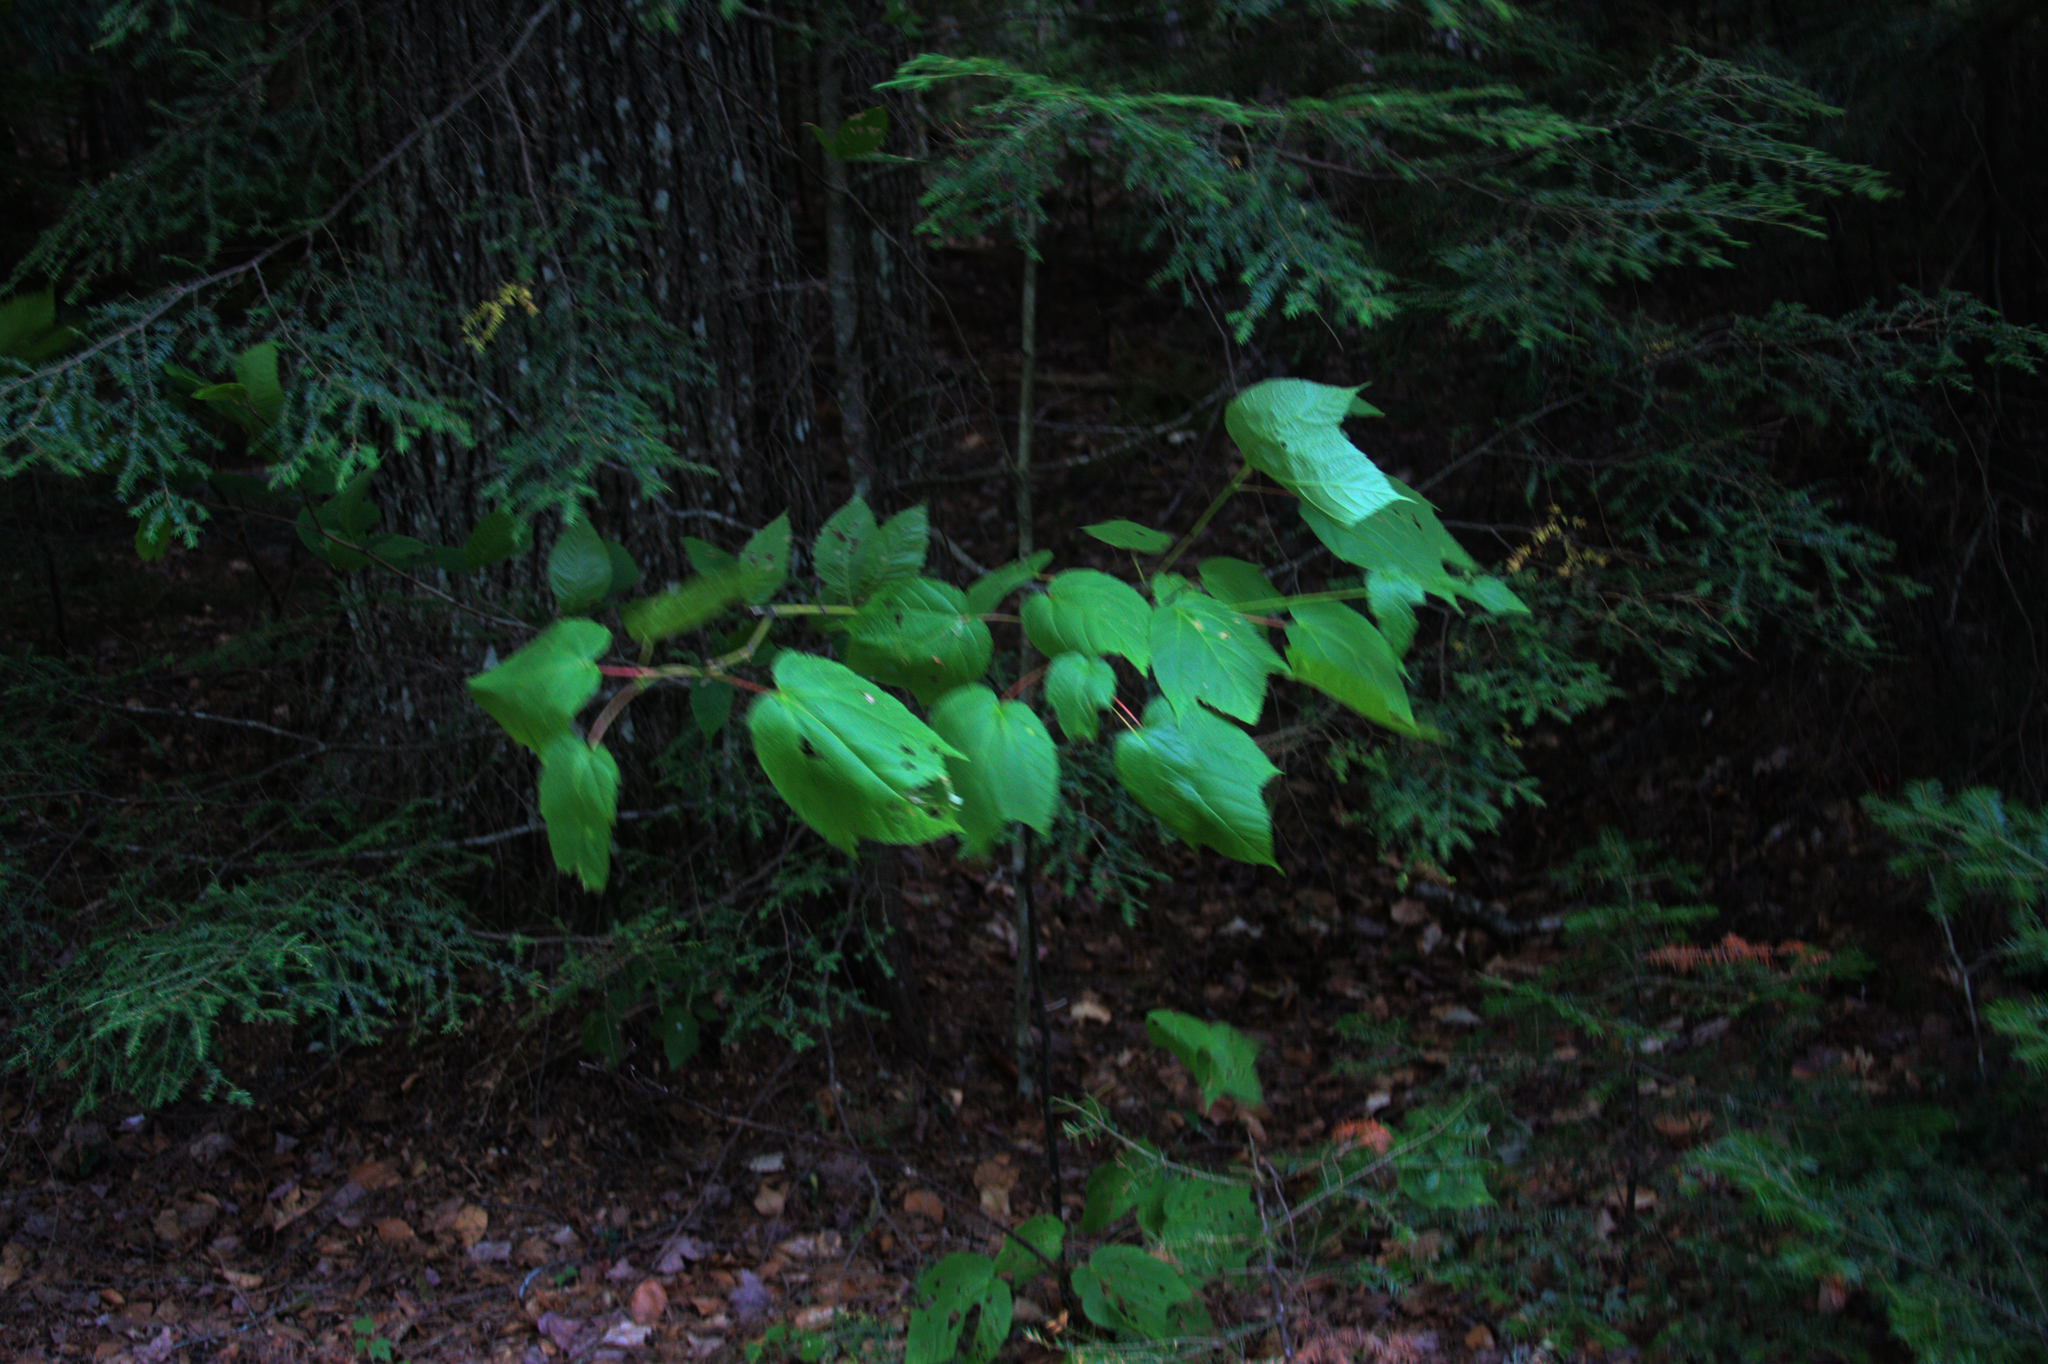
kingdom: Plantae
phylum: Tracheophyta
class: Magnoliopsida
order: Sapindales
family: Sapindaceae
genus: Acer
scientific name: Acer pensylvanicum
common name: Moosewood
